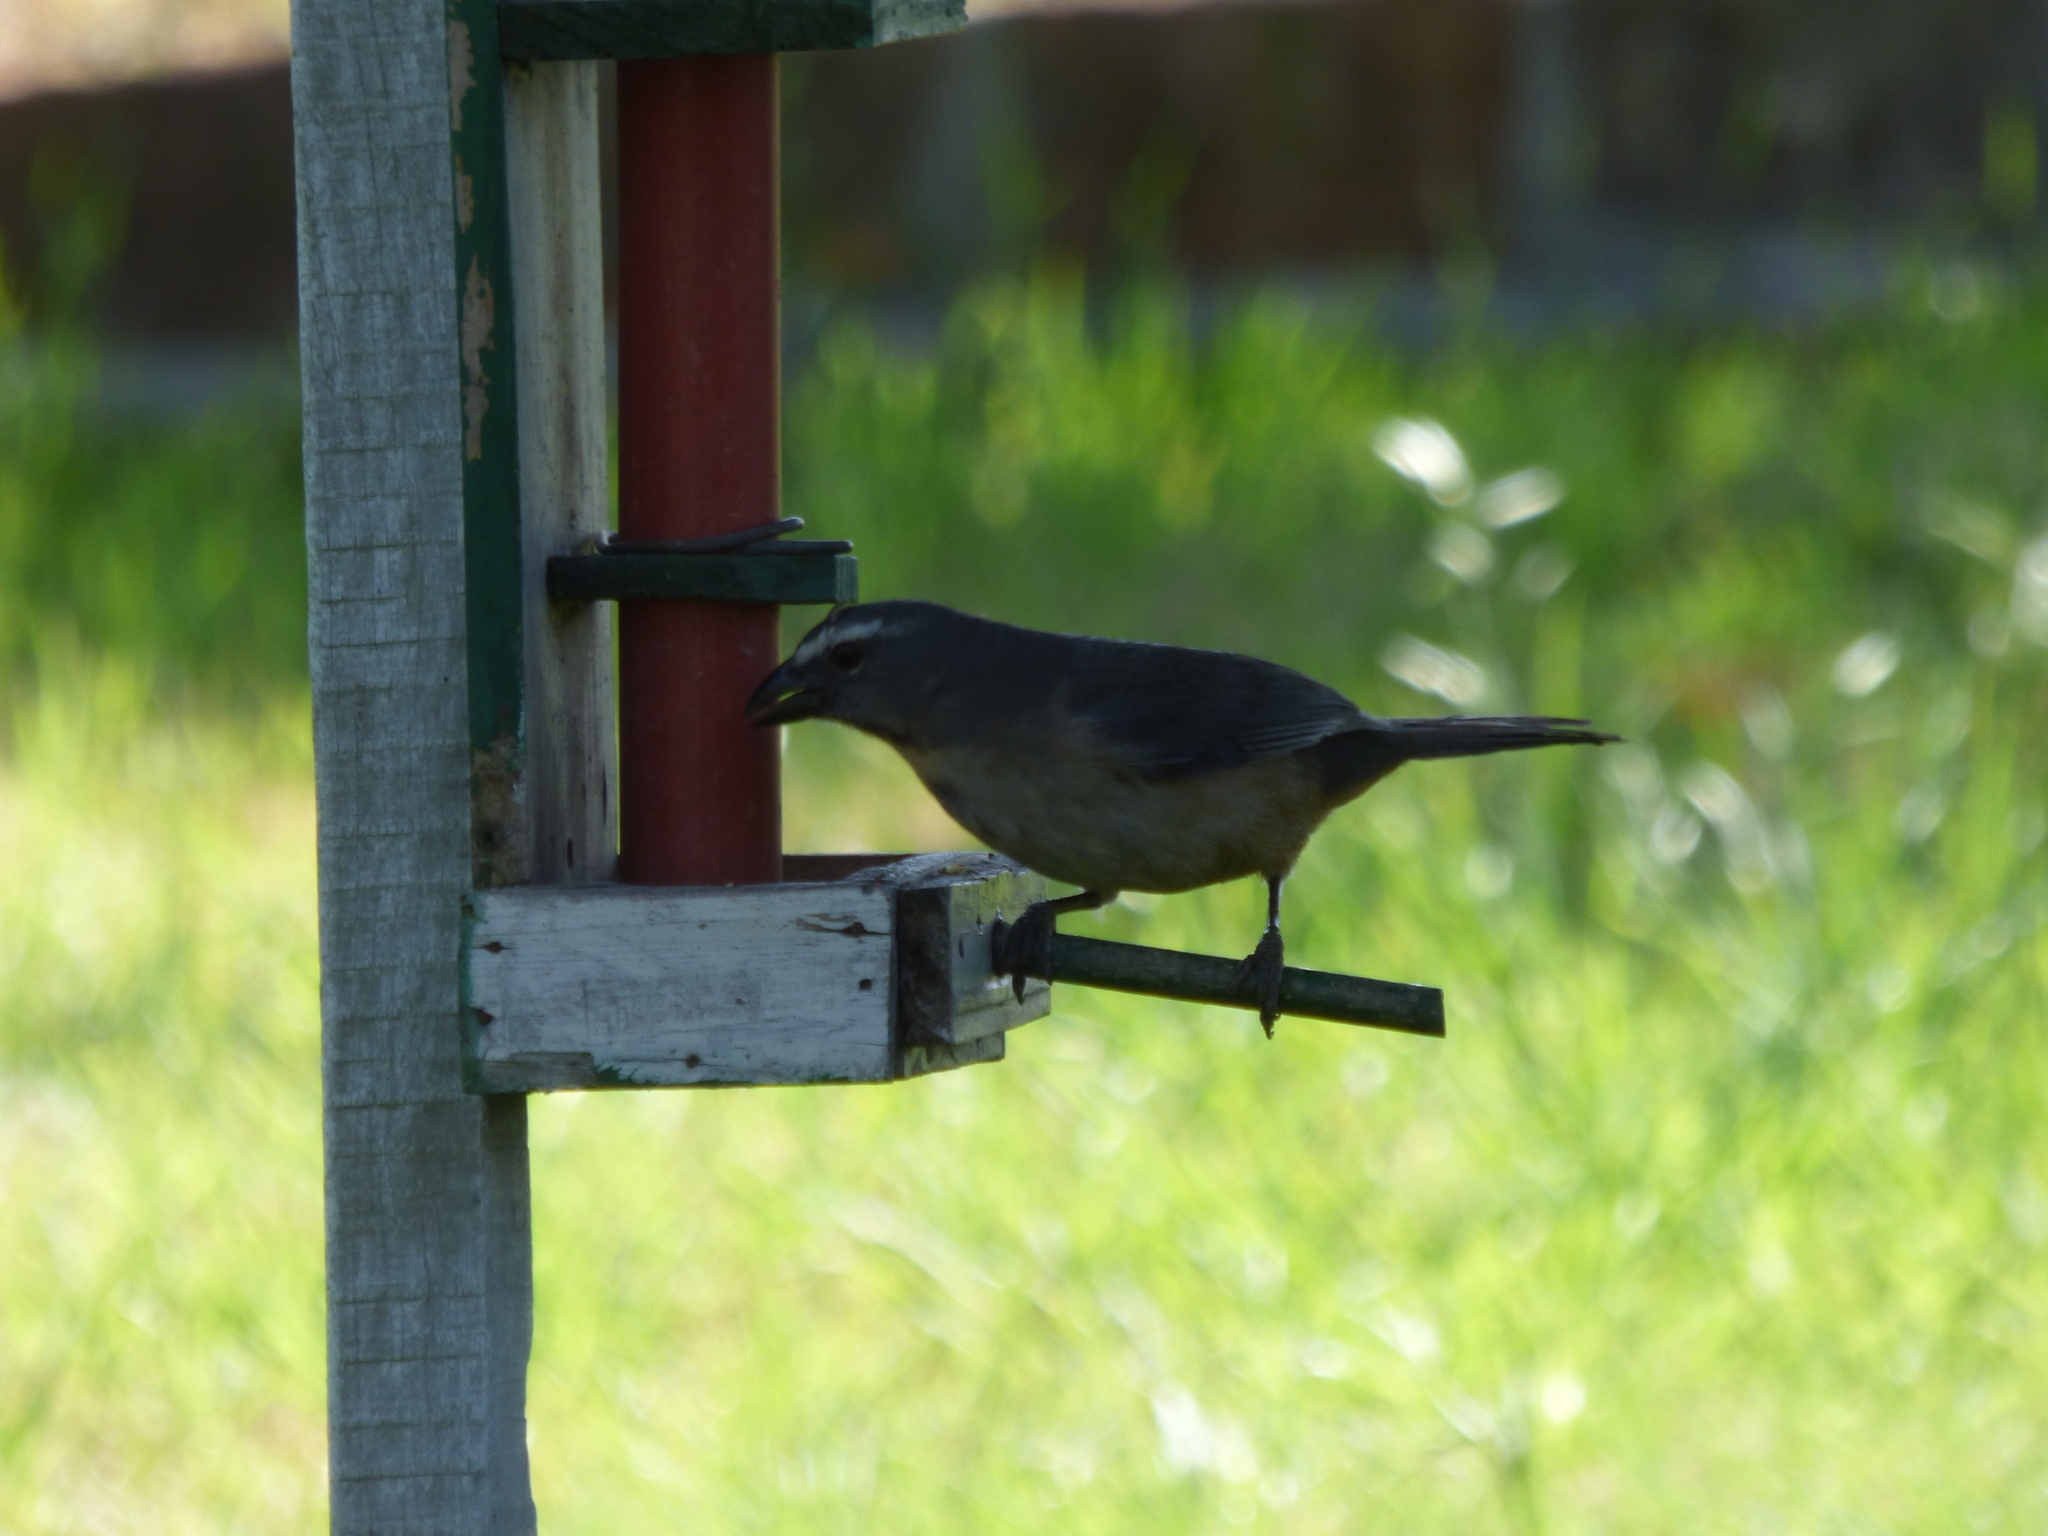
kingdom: Animalia
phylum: Chordata
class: Aves
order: Passeriformes
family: Thraupidae
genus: Saltator
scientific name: Saltator coerulescens
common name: Grayish saltator
